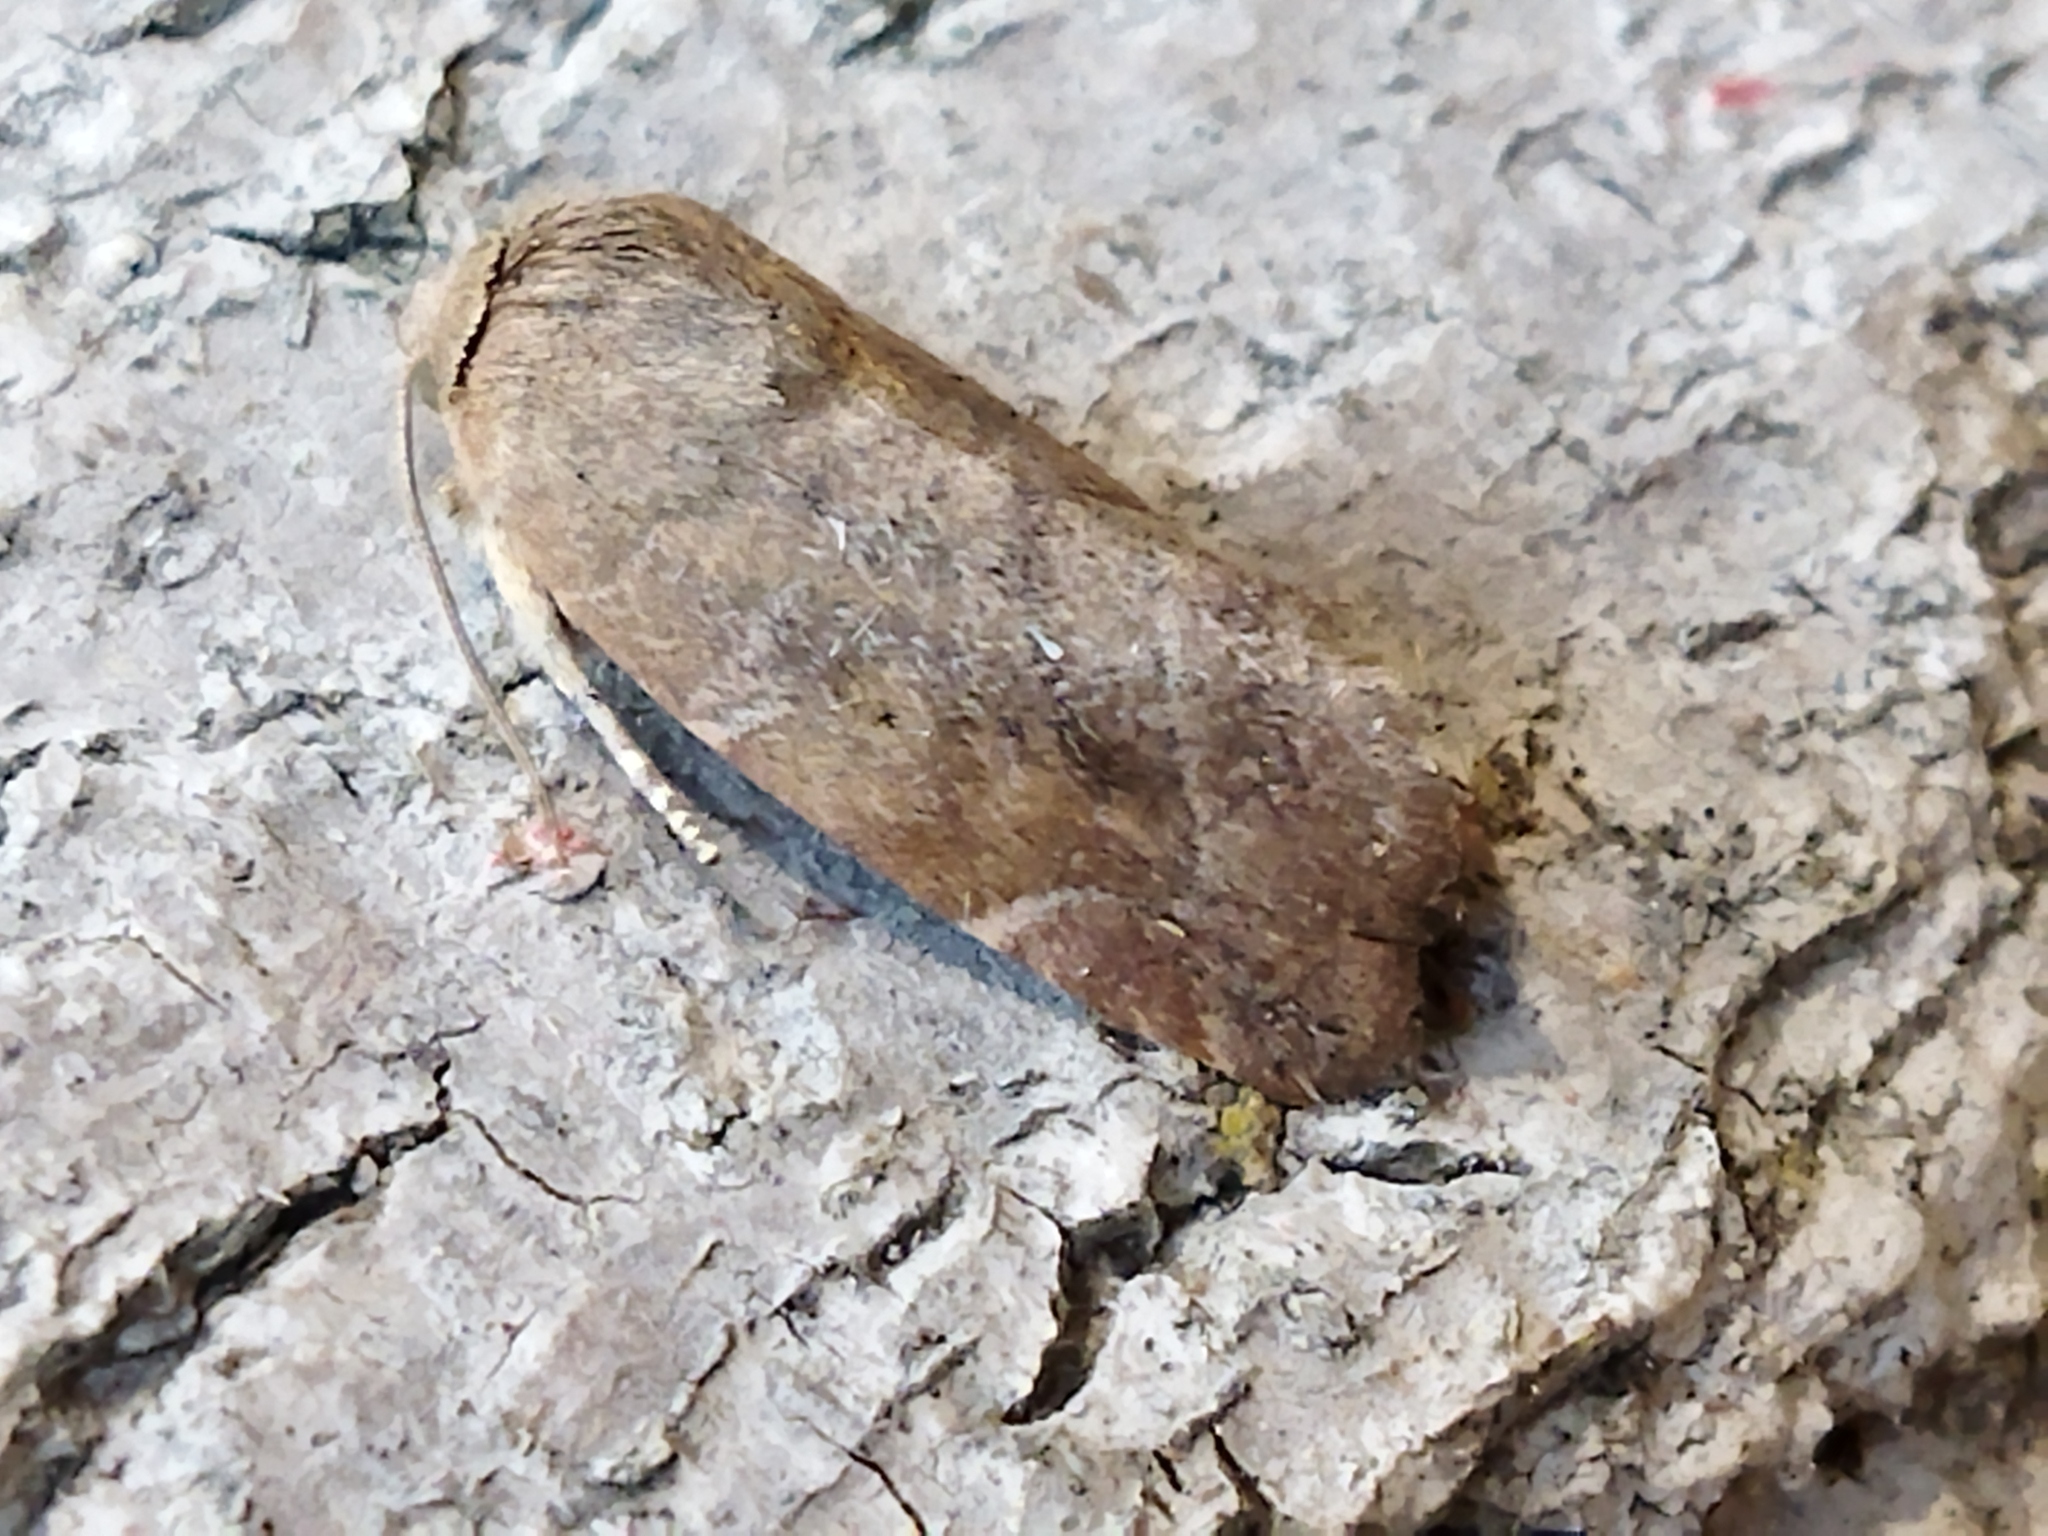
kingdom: Animalia
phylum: Arthropoda
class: Insecta
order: Lepidoptera
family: Noctuidae
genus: Cosmia
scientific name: Cosmia affinis
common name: Lesser-spotted pinion
